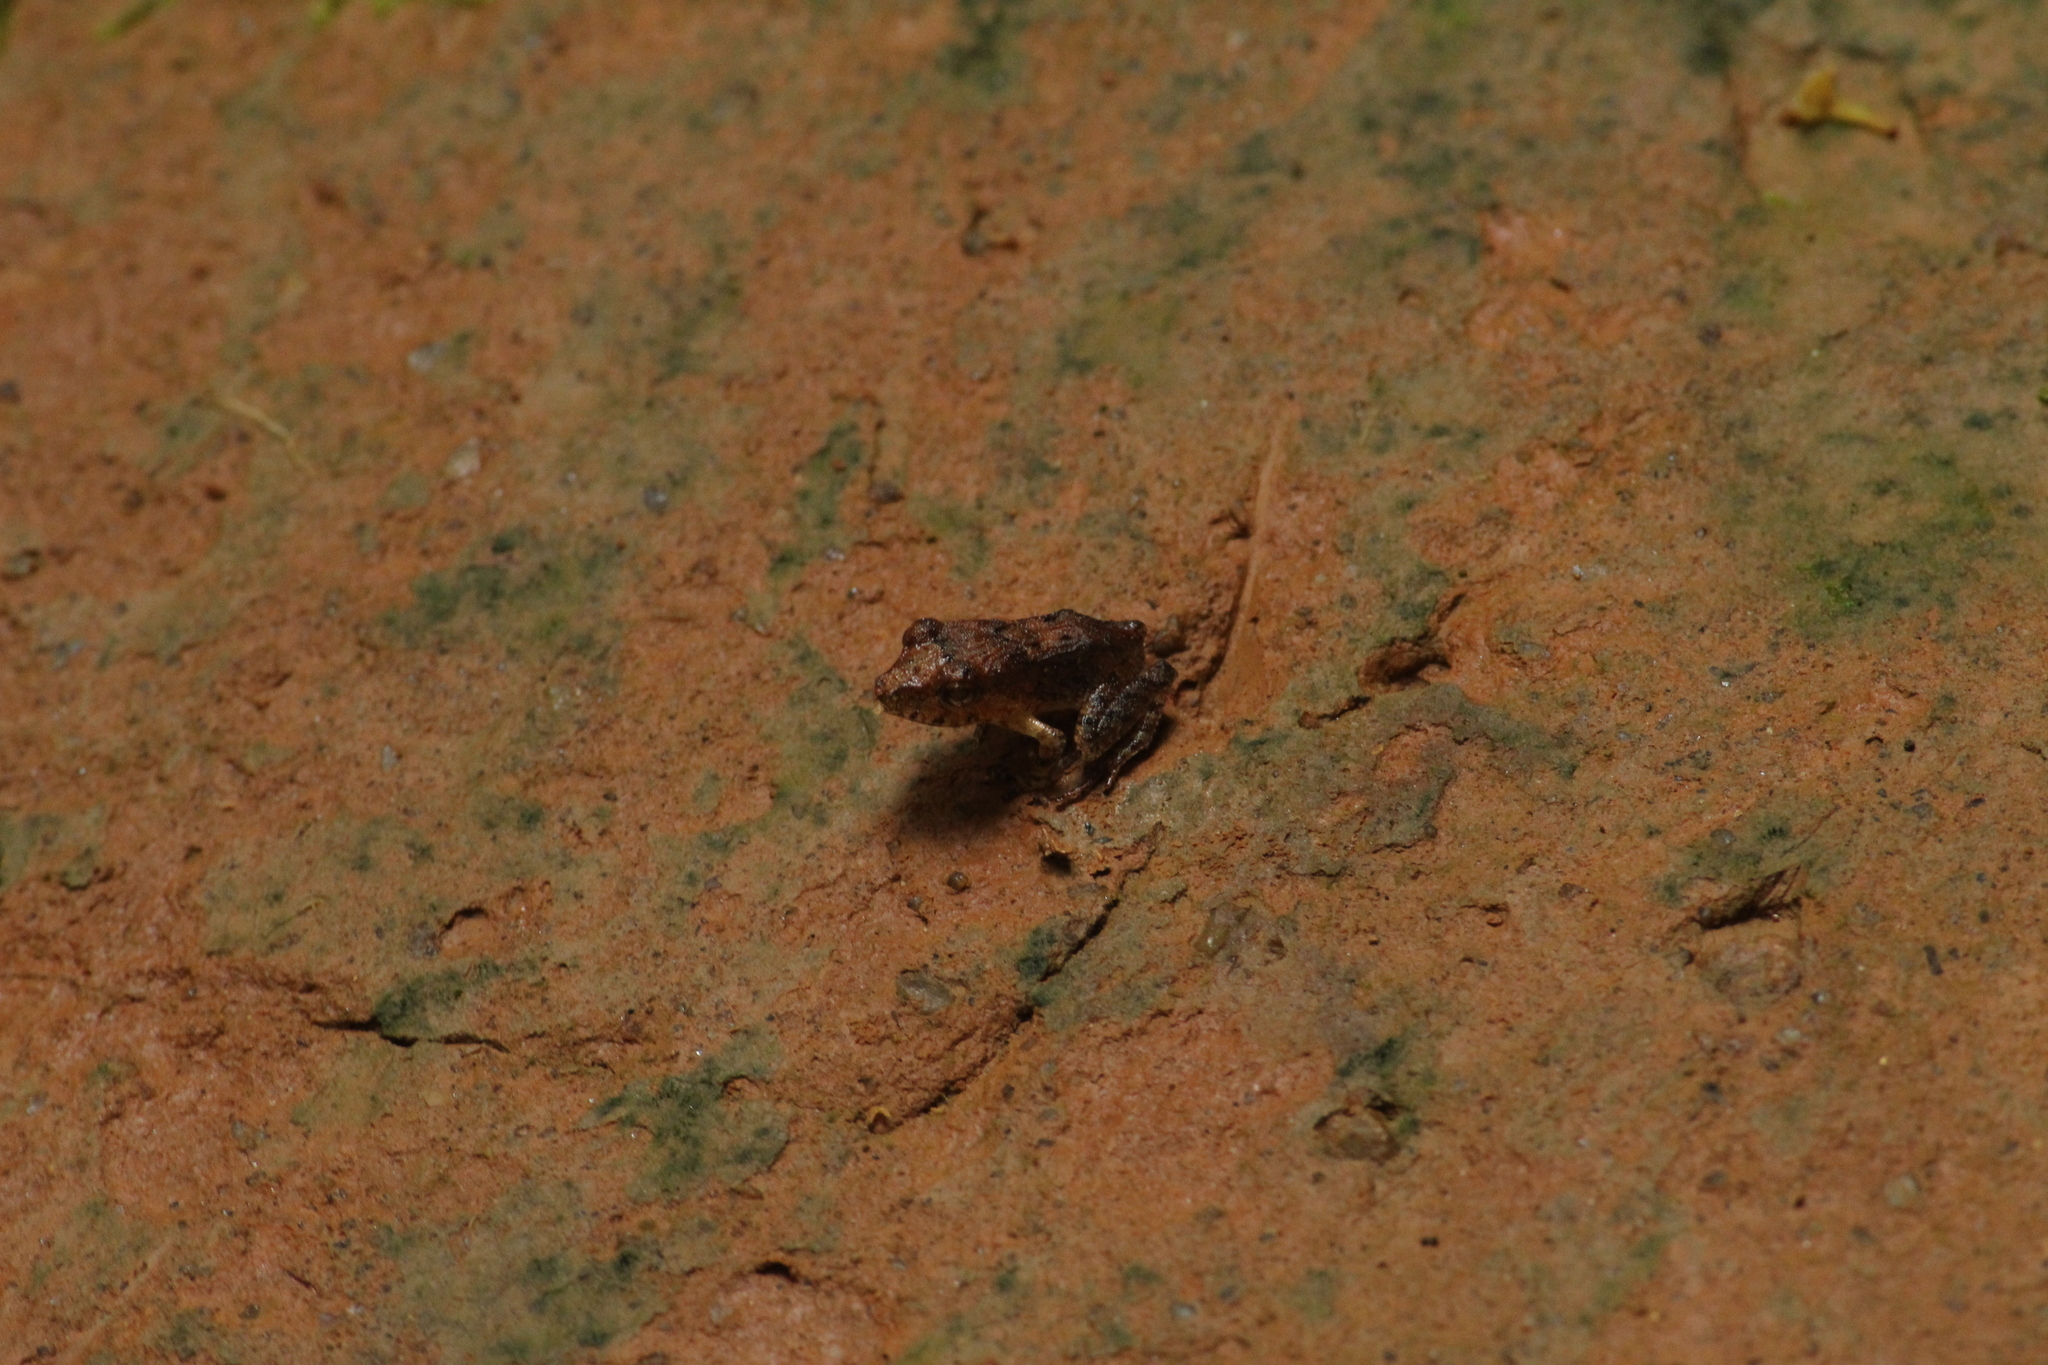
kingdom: Animalia
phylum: Chordata
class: Amphibia
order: Anura
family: Craugastoridae
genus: Haddadus
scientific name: Haddadus binotatus
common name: Clay robber frog
